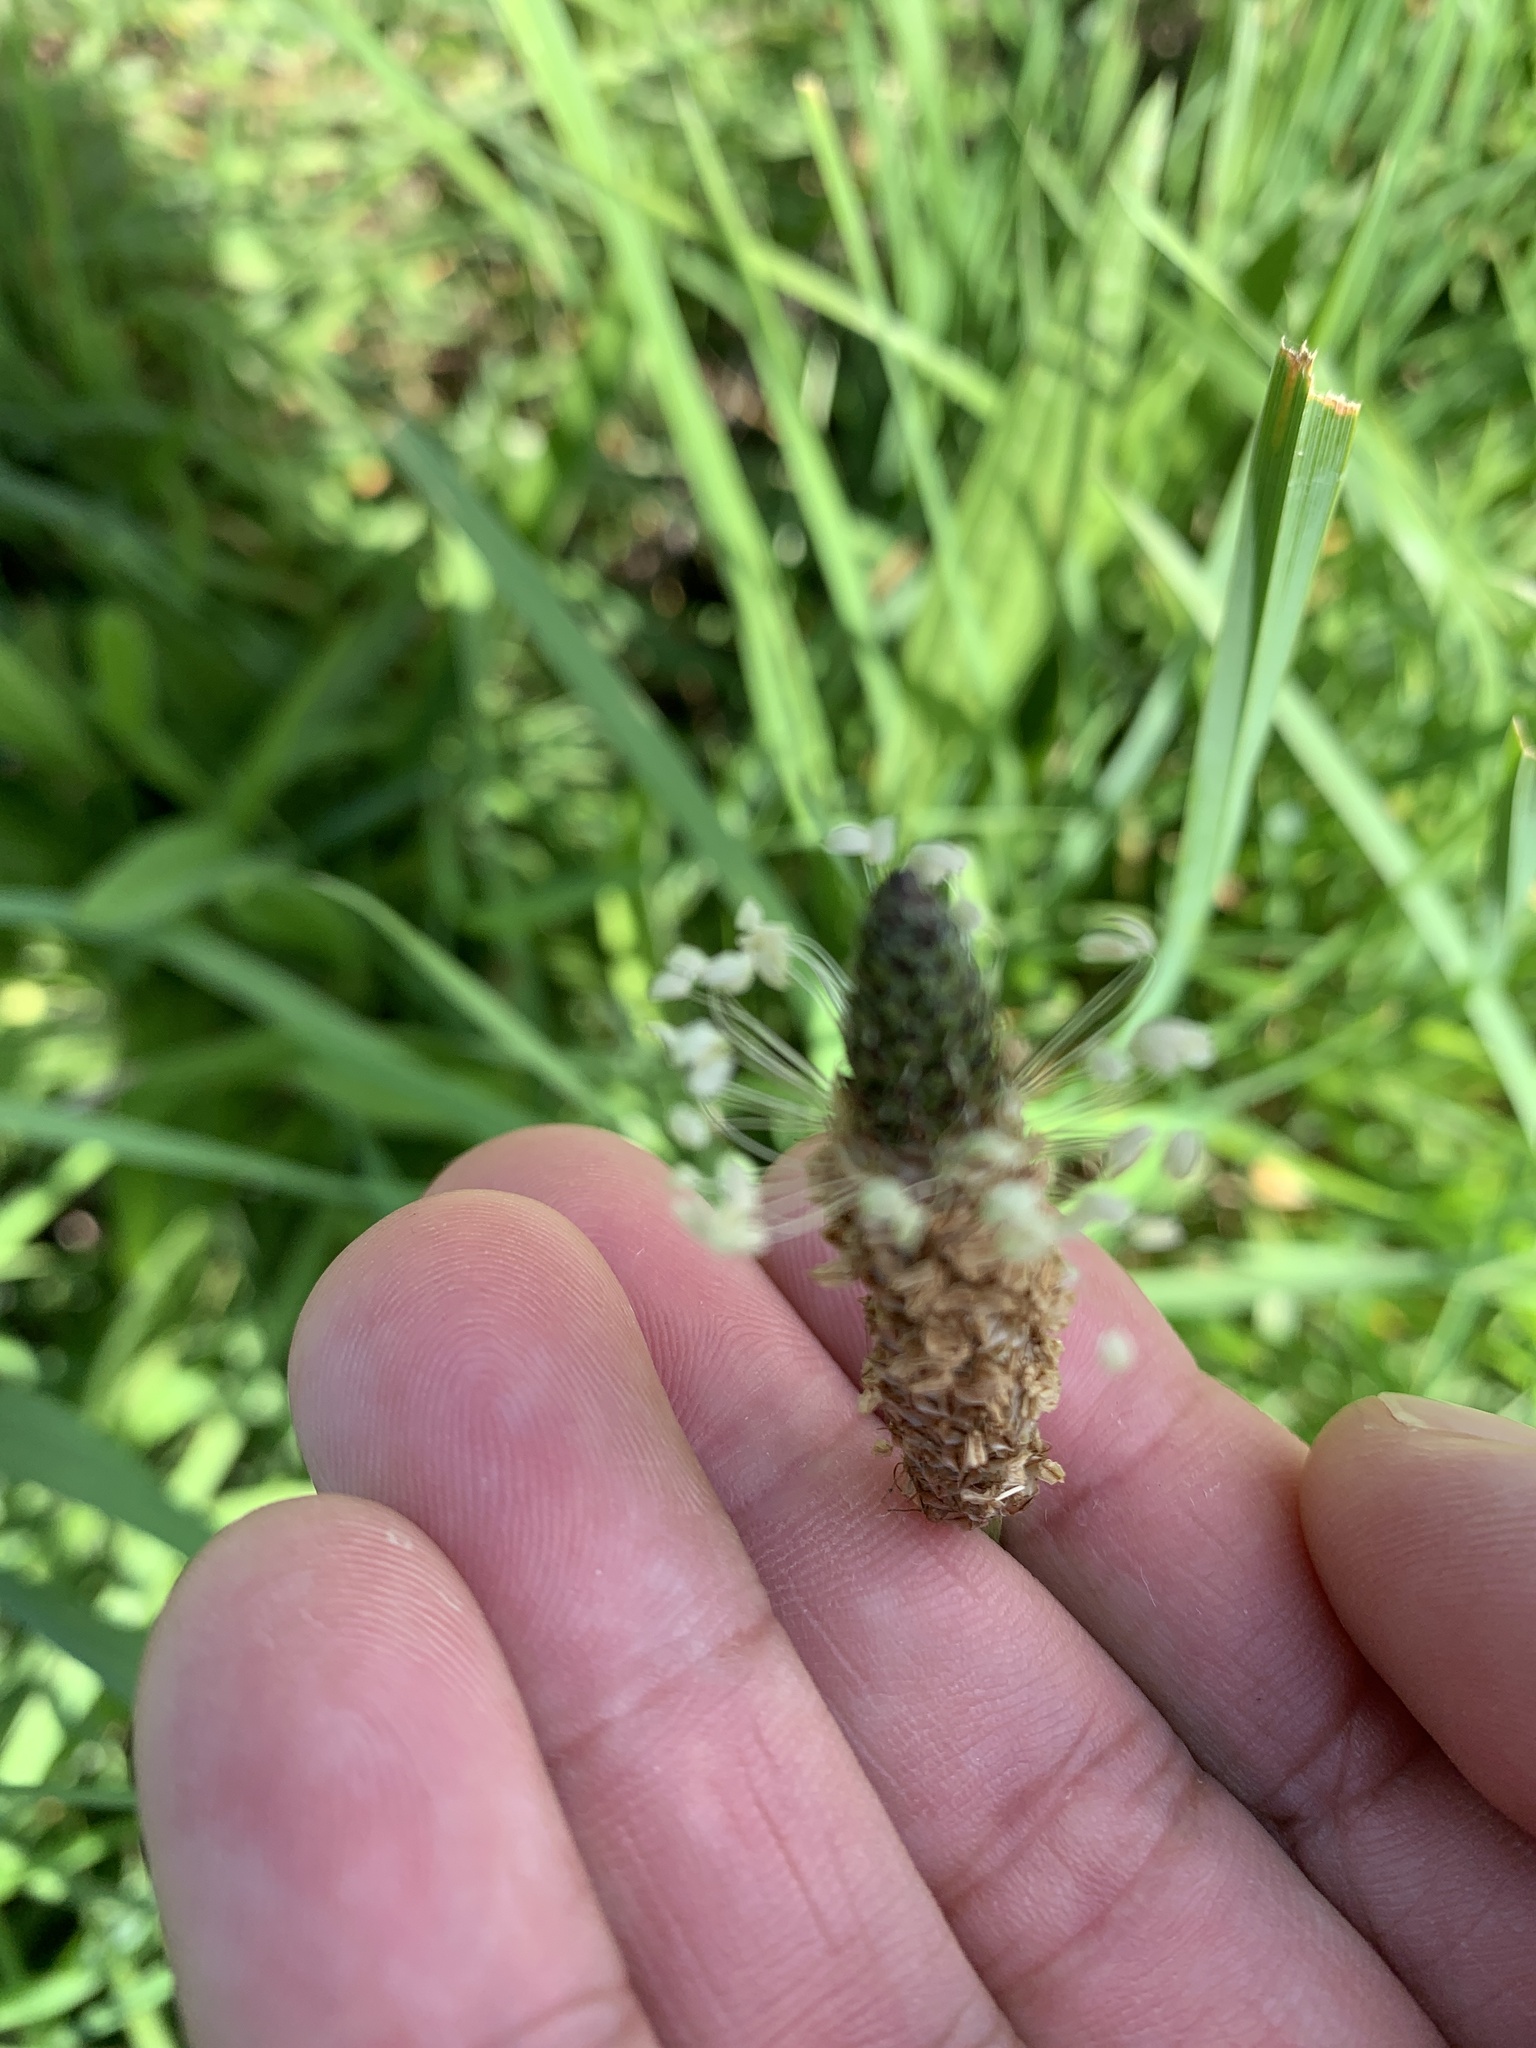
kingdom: Plantae
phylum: Tracheophyta
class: Magnoliopsida
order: Lamiales
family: Plantaginaceae
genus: Plantago
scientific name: Plantago lanceolata
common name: Ribwort plantain
